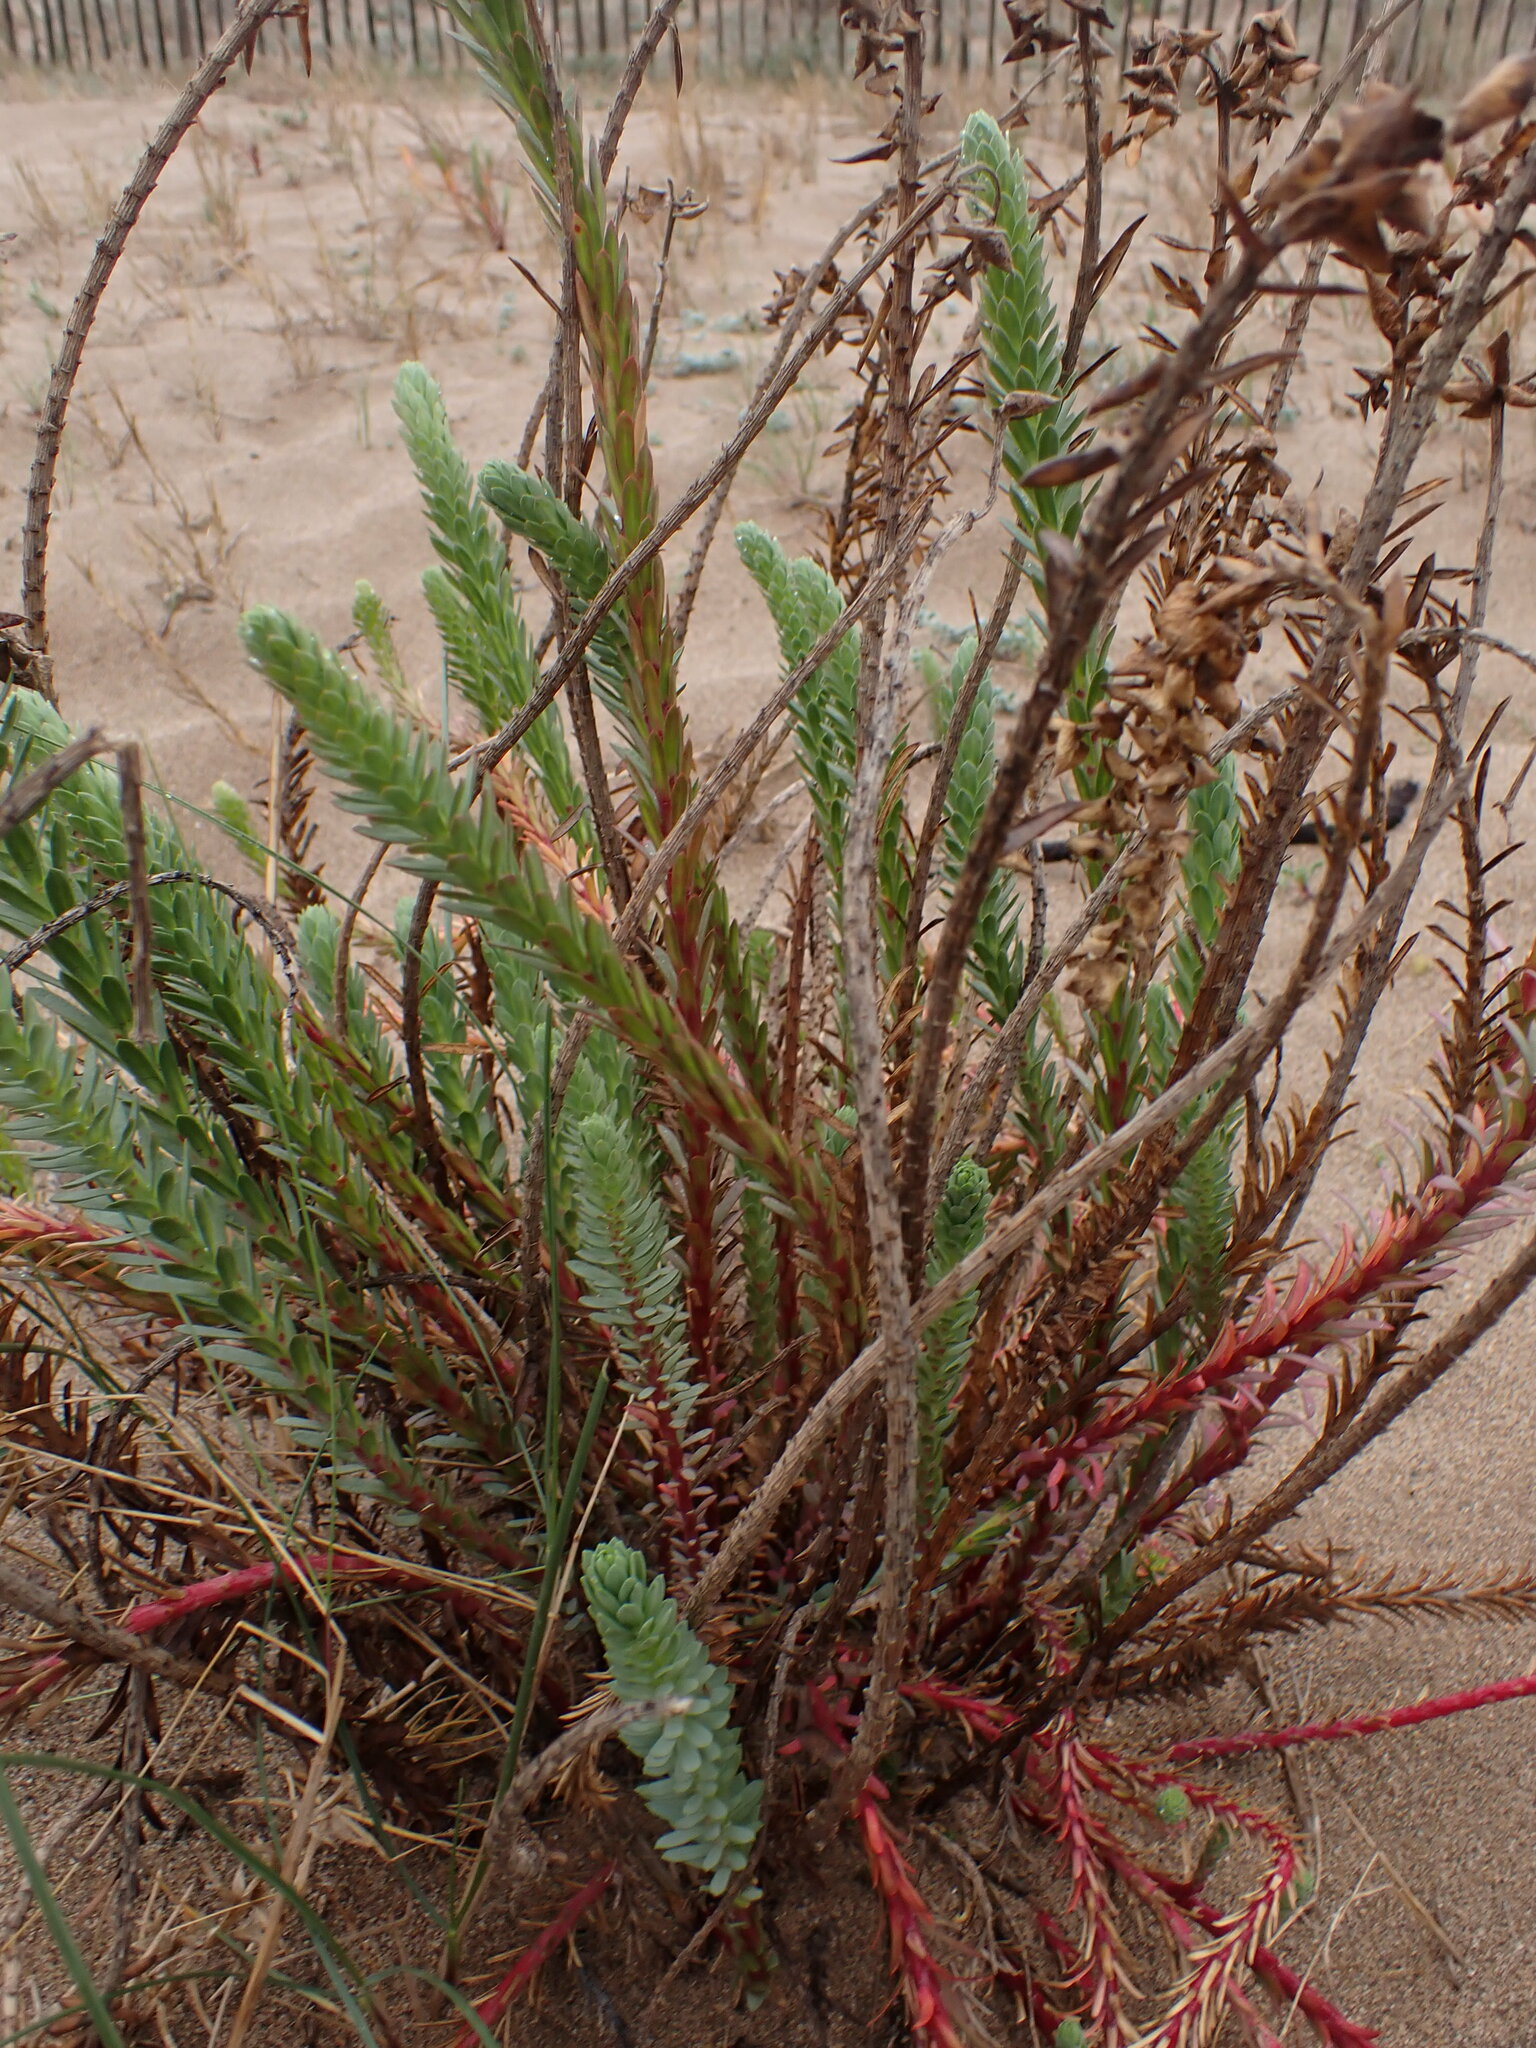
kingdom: Plantae
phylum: Tracheophyta
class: Magnoliopsida
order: Malpighiales
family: Euphorbiaceae
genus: Euphorbia
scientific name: Euphorbia paralias
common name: Sea spurge
